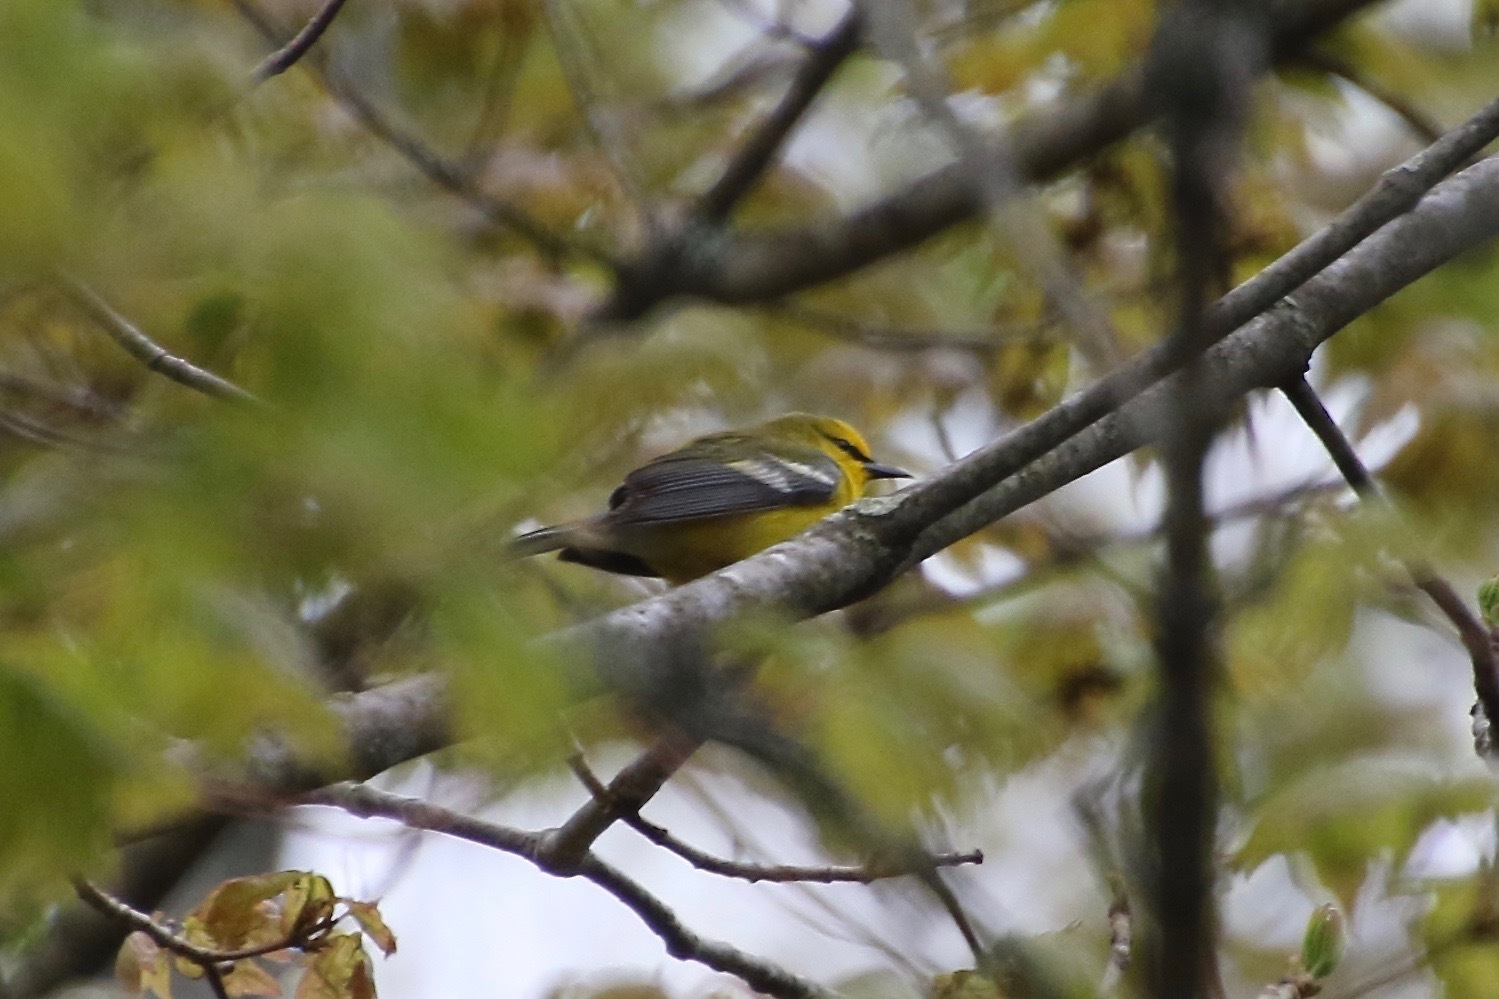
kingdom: Animalia
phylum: Chordata
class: Aves
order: Passeriformes
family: Parulidae
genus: Vermivora
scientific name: Vermivora cyanoptera
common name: Blue-winged warbler
